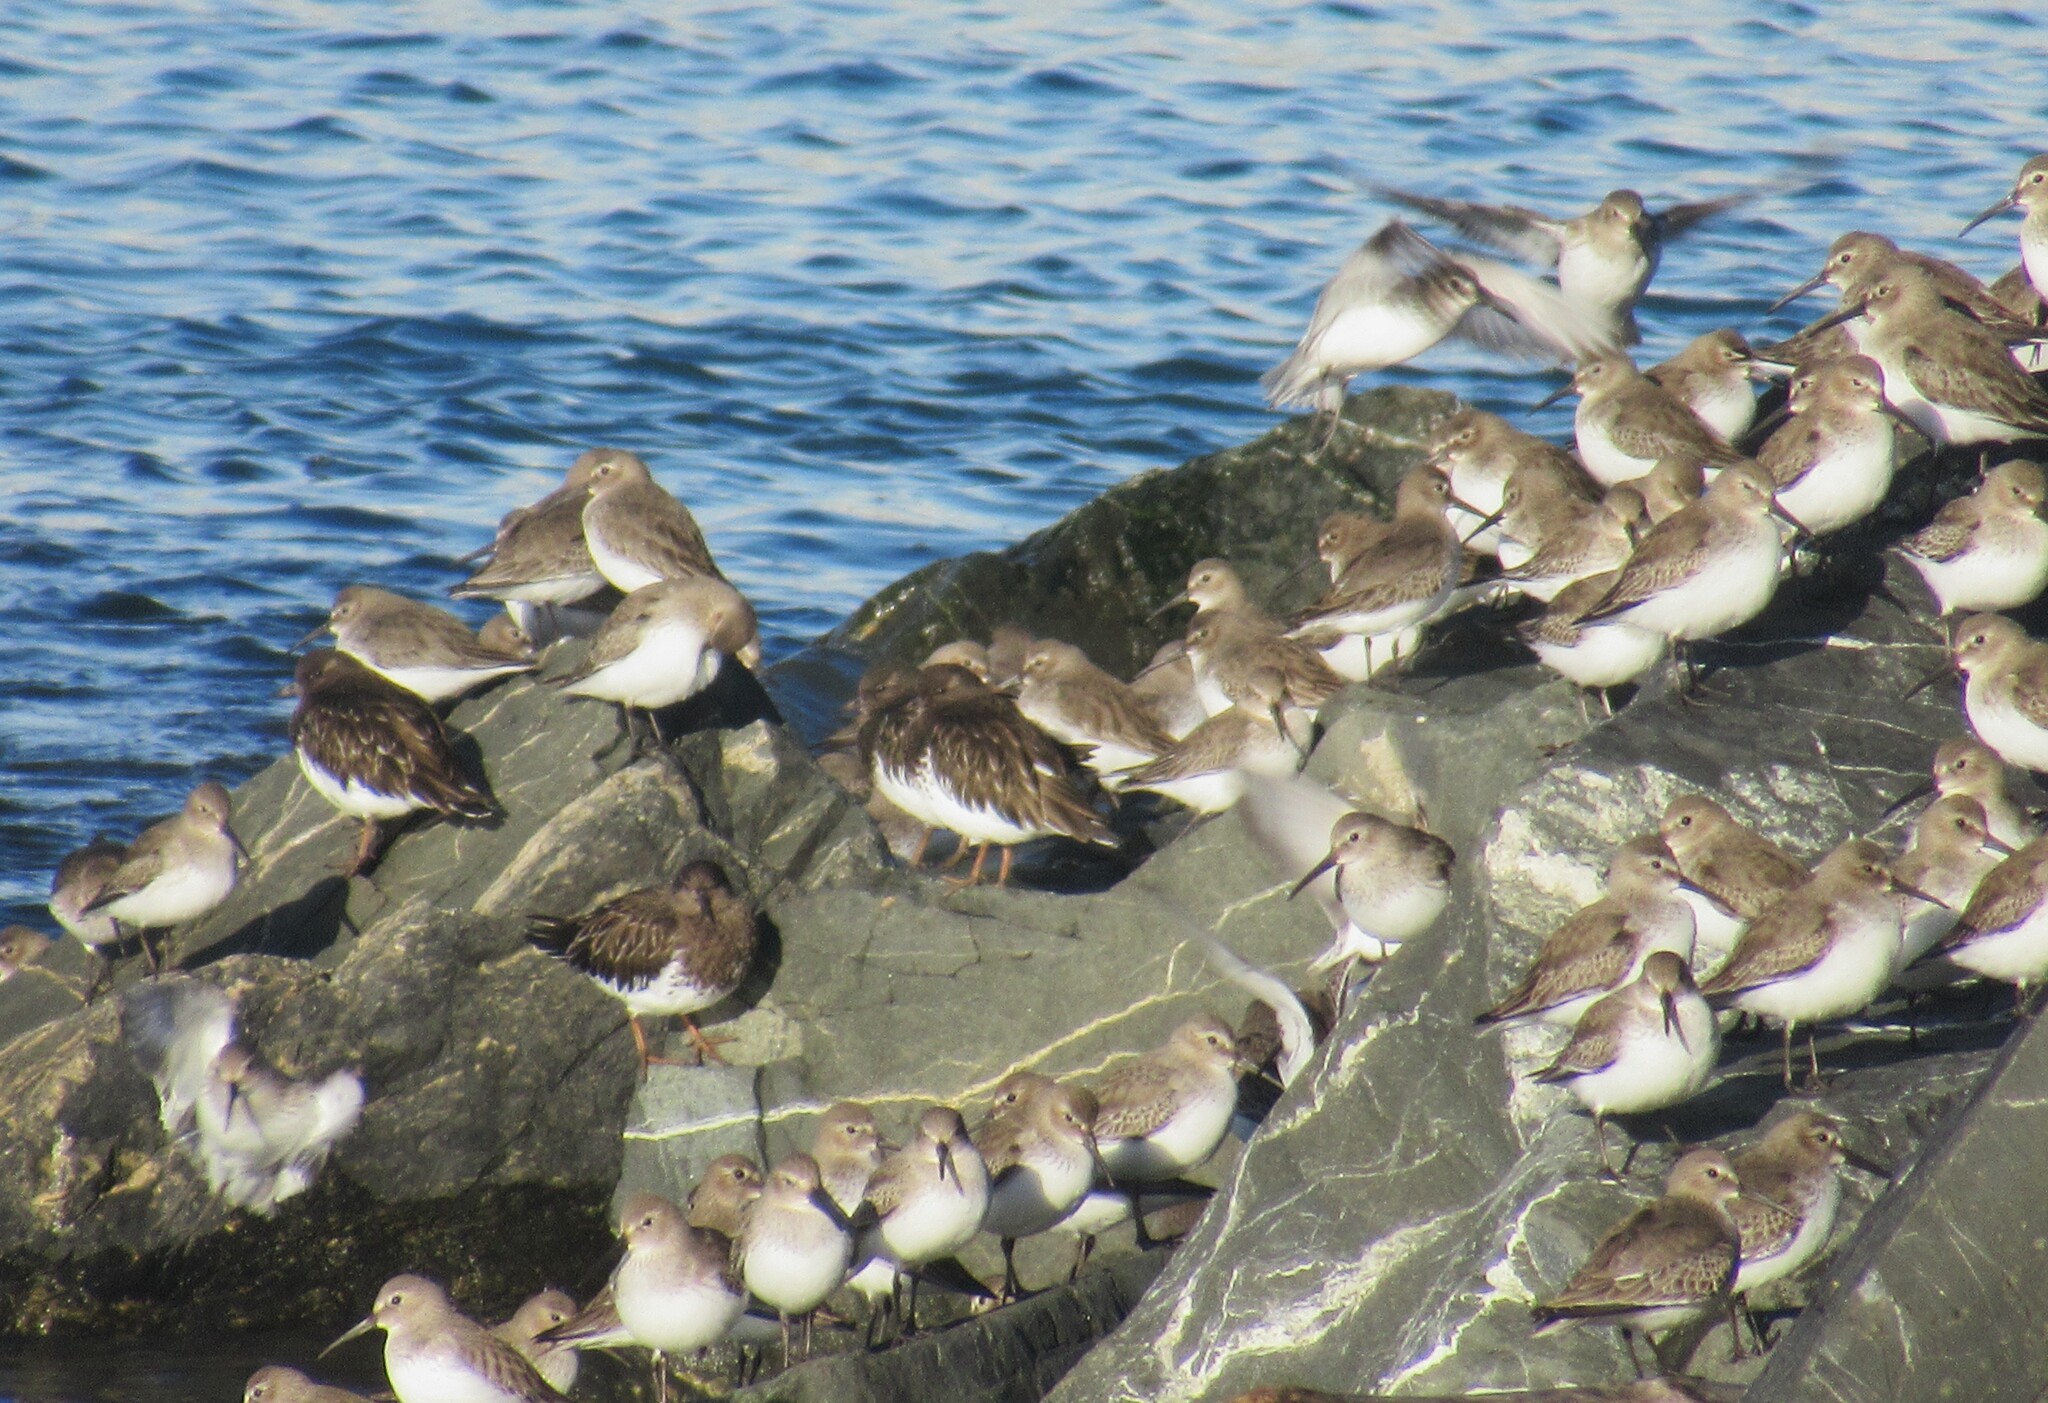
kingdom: Animalia
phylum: Chordata
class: Aves
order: Charadriiformes
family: Scolopacidae
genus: Calidris
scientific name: Calidris alpina
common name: Dunlin
